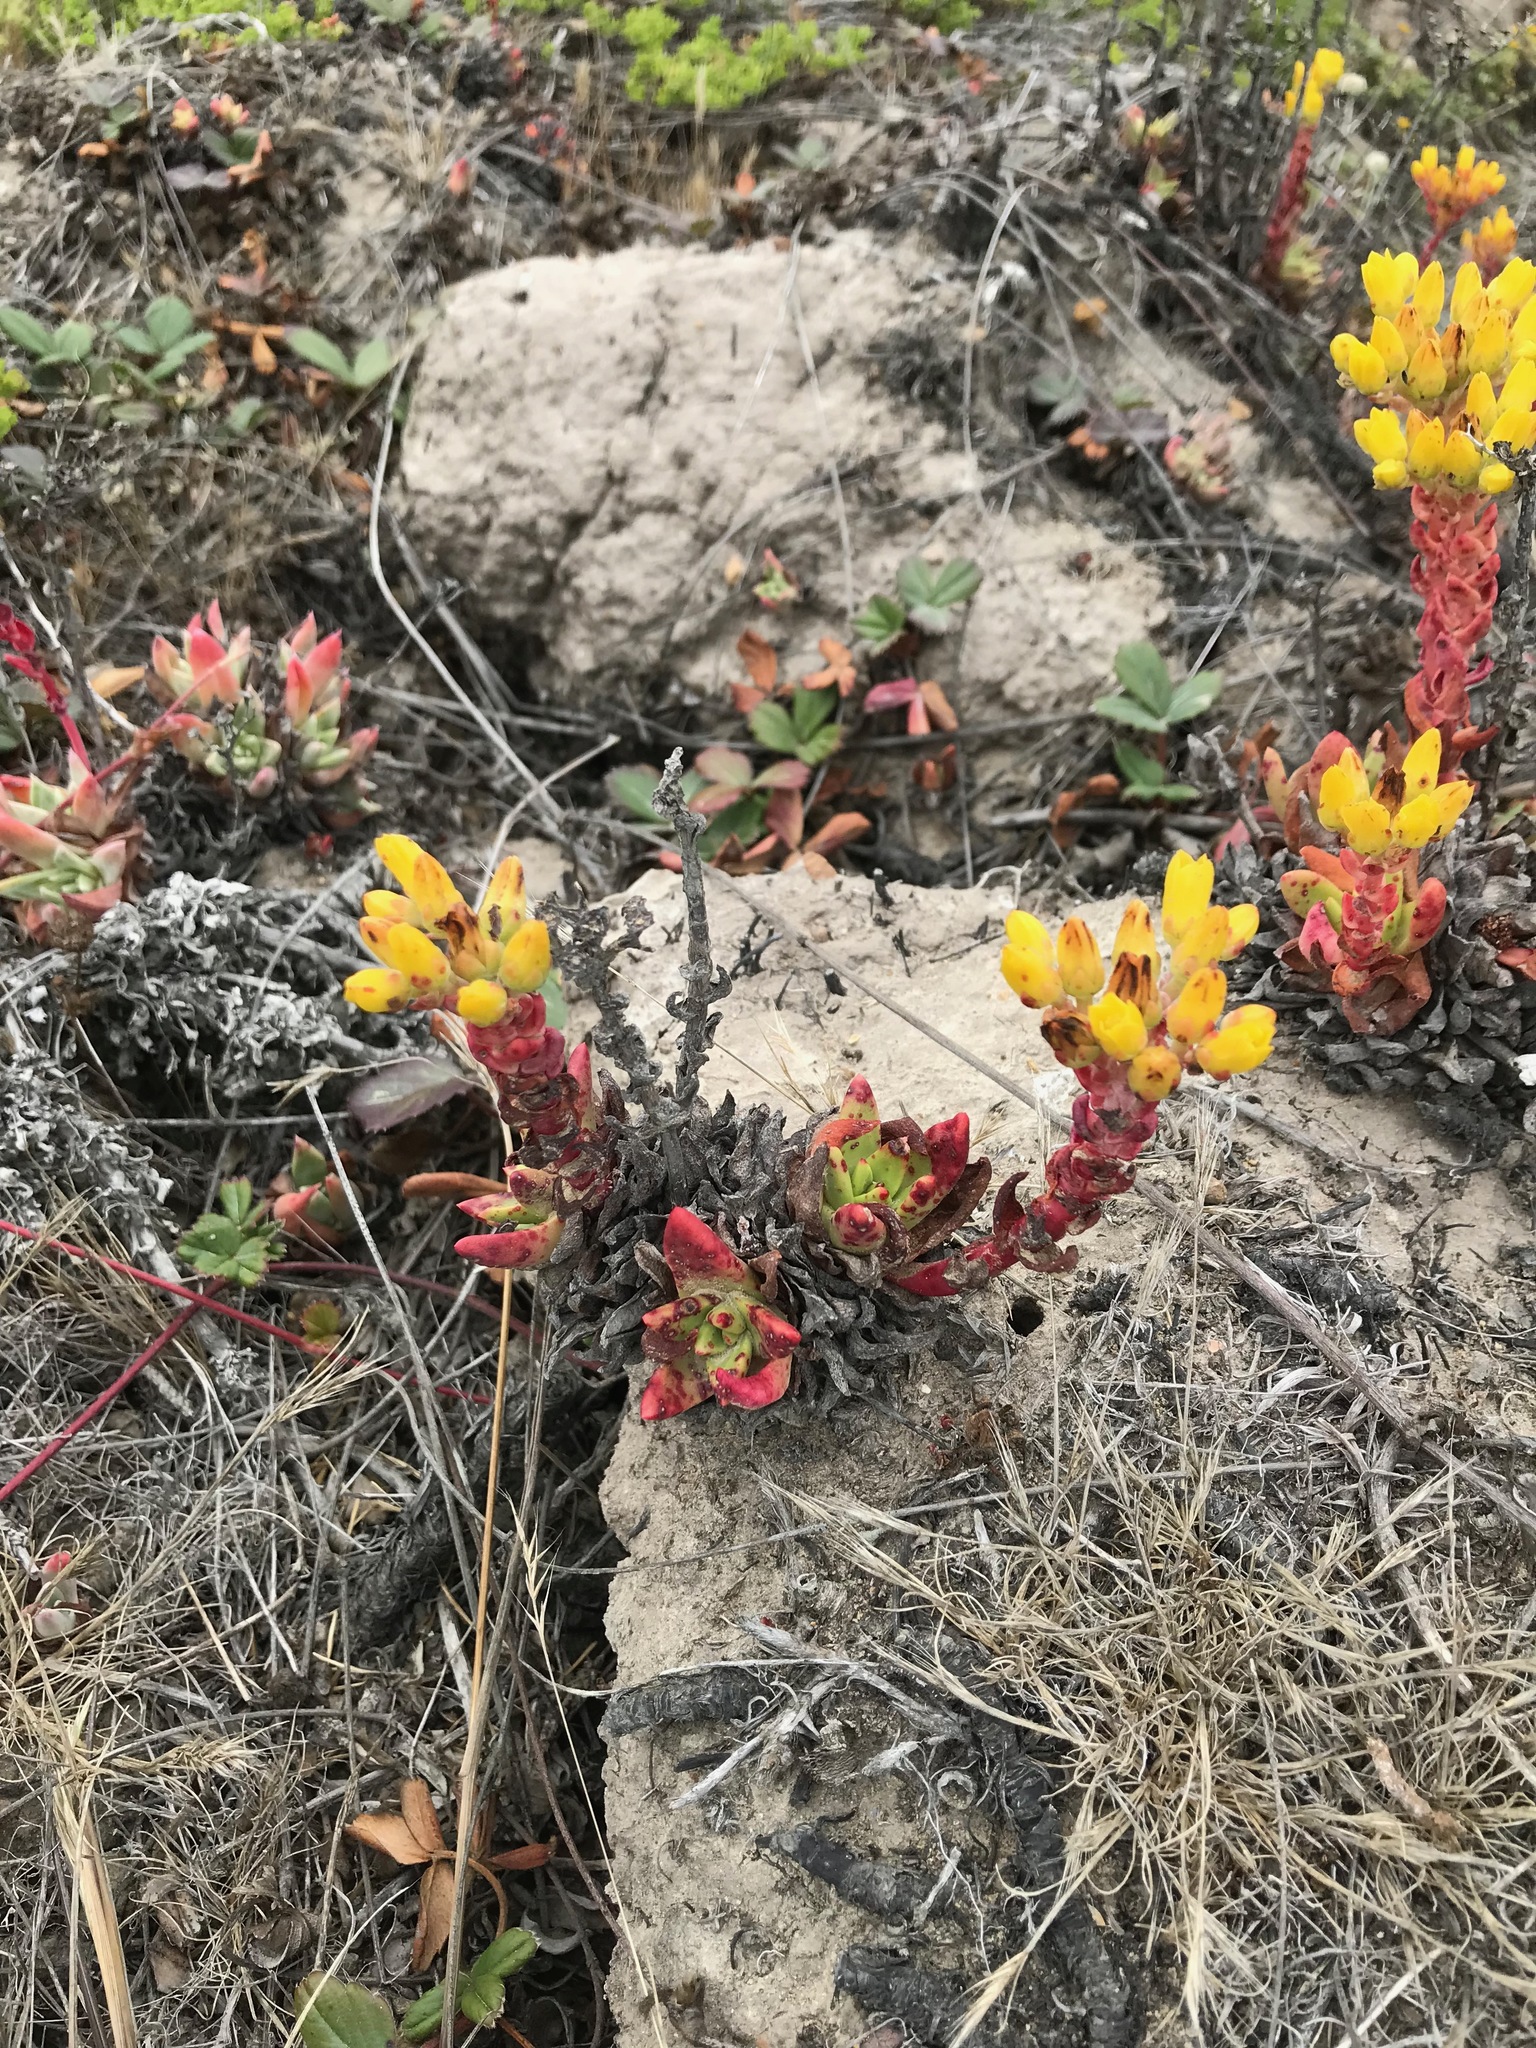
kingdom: Plantae
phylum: Tracheophyta
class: Magnoliopsida
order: Saxifragales
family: Crassulaceae
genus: Dudleya
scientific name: Dudleya caespitosa
